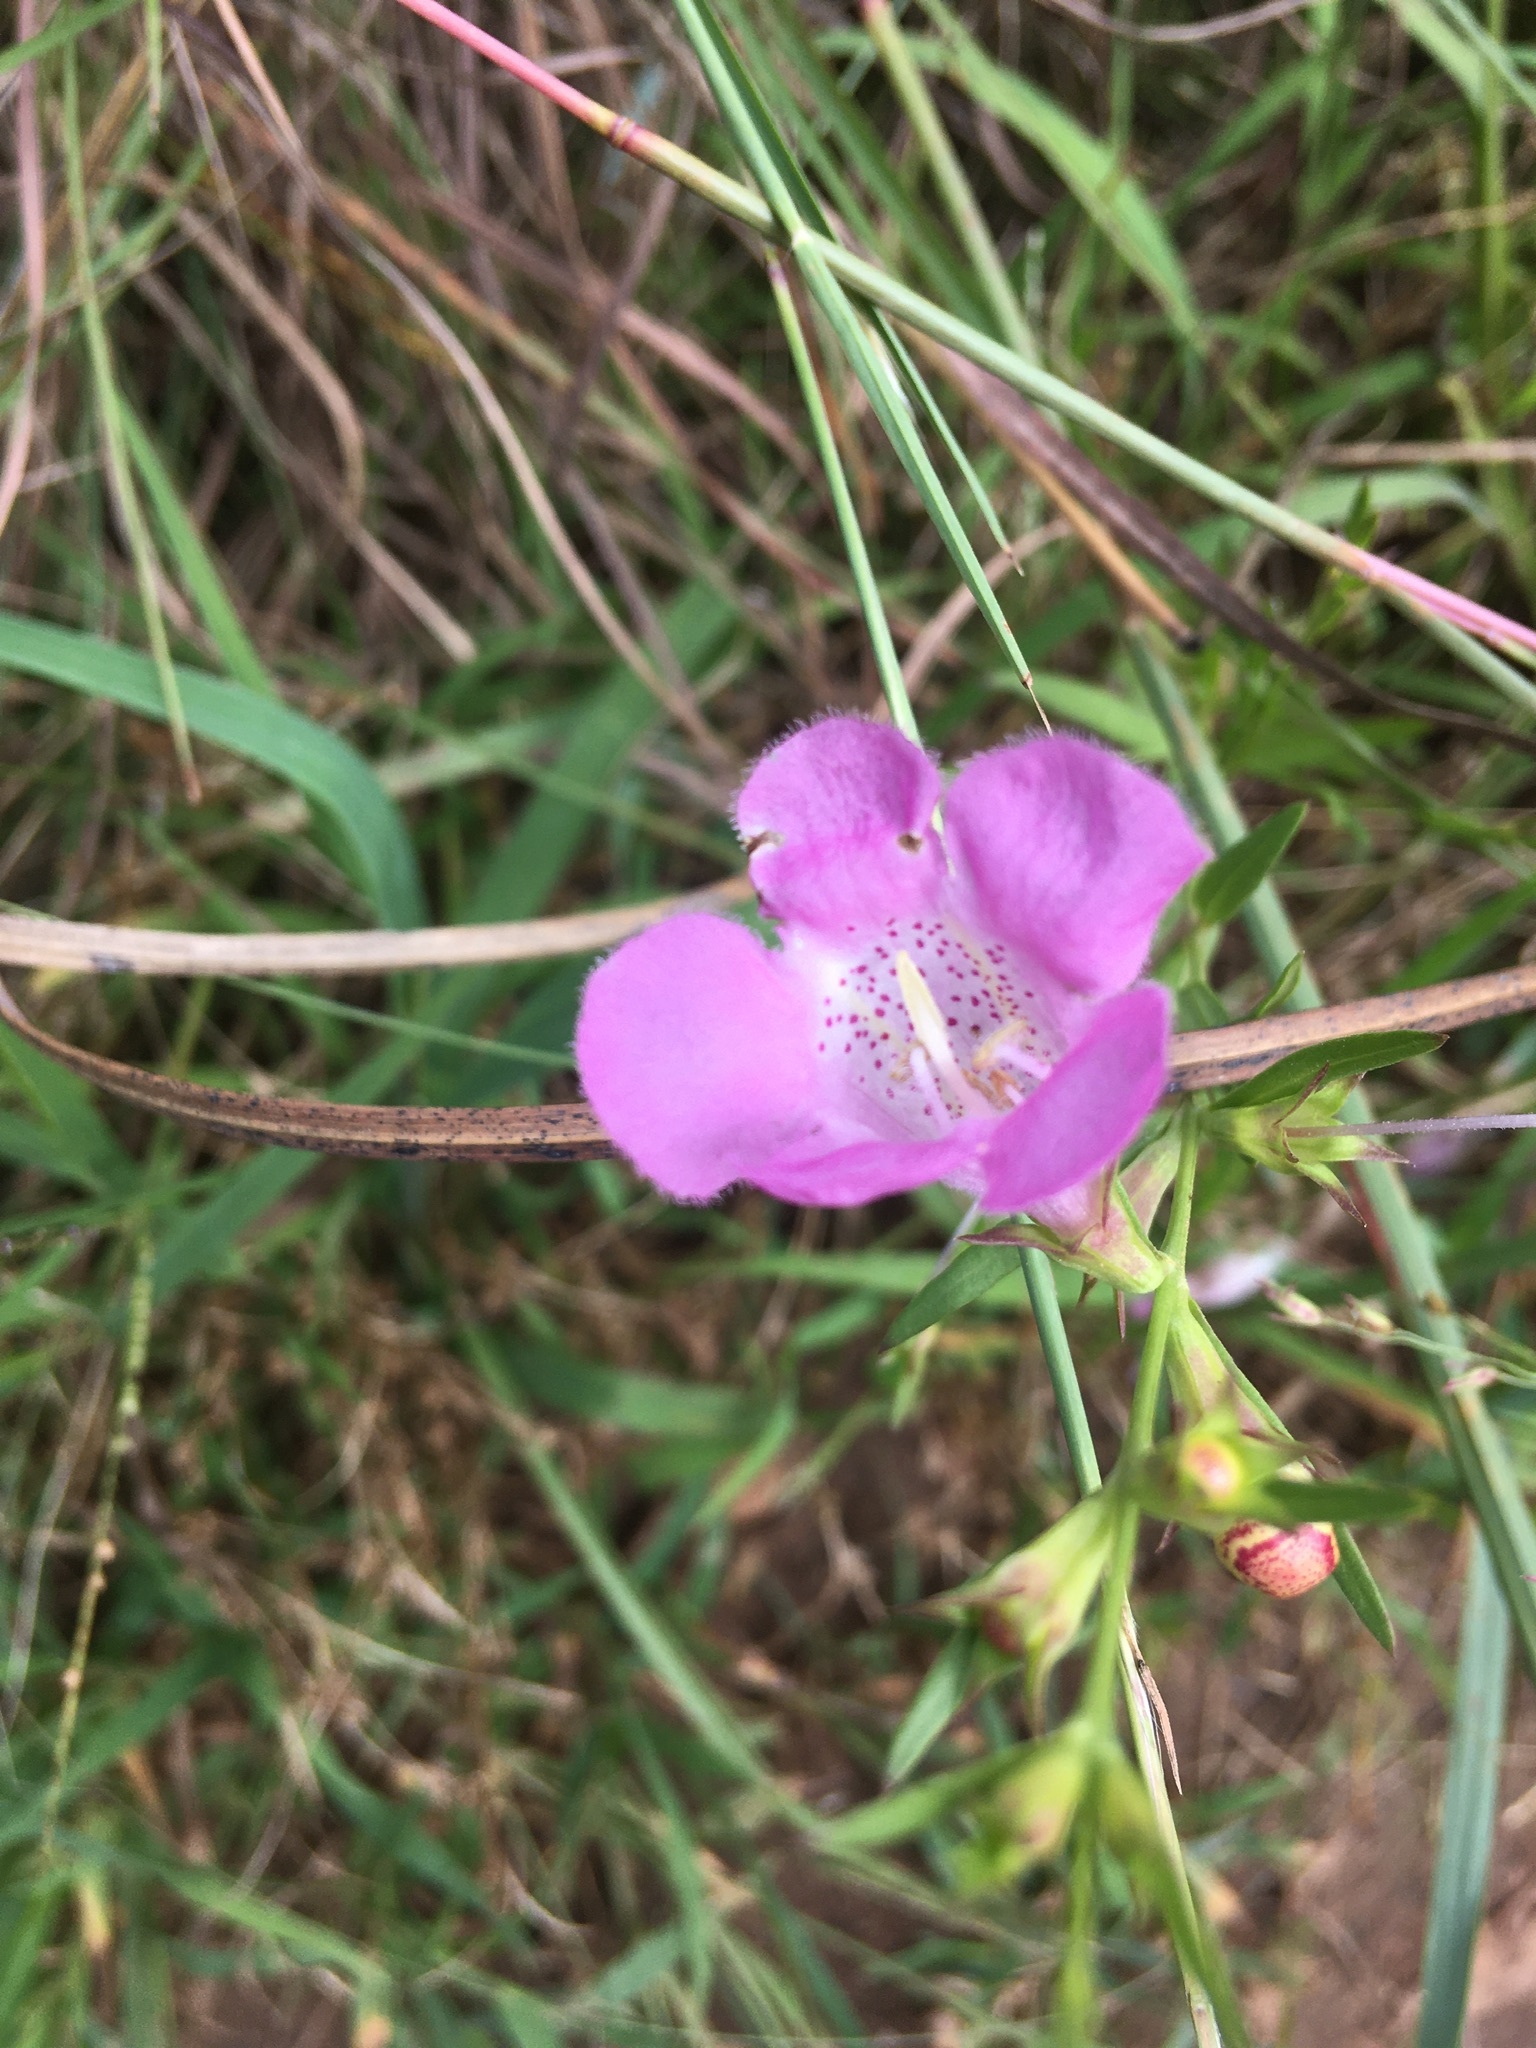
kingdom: Plantae
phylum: Tracheophyta
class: Magnoliopsida
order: Lamiales
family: Orobanchaceae
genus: Agalinis
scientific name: Agalinis heterophylla
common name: Prairie agalinis
